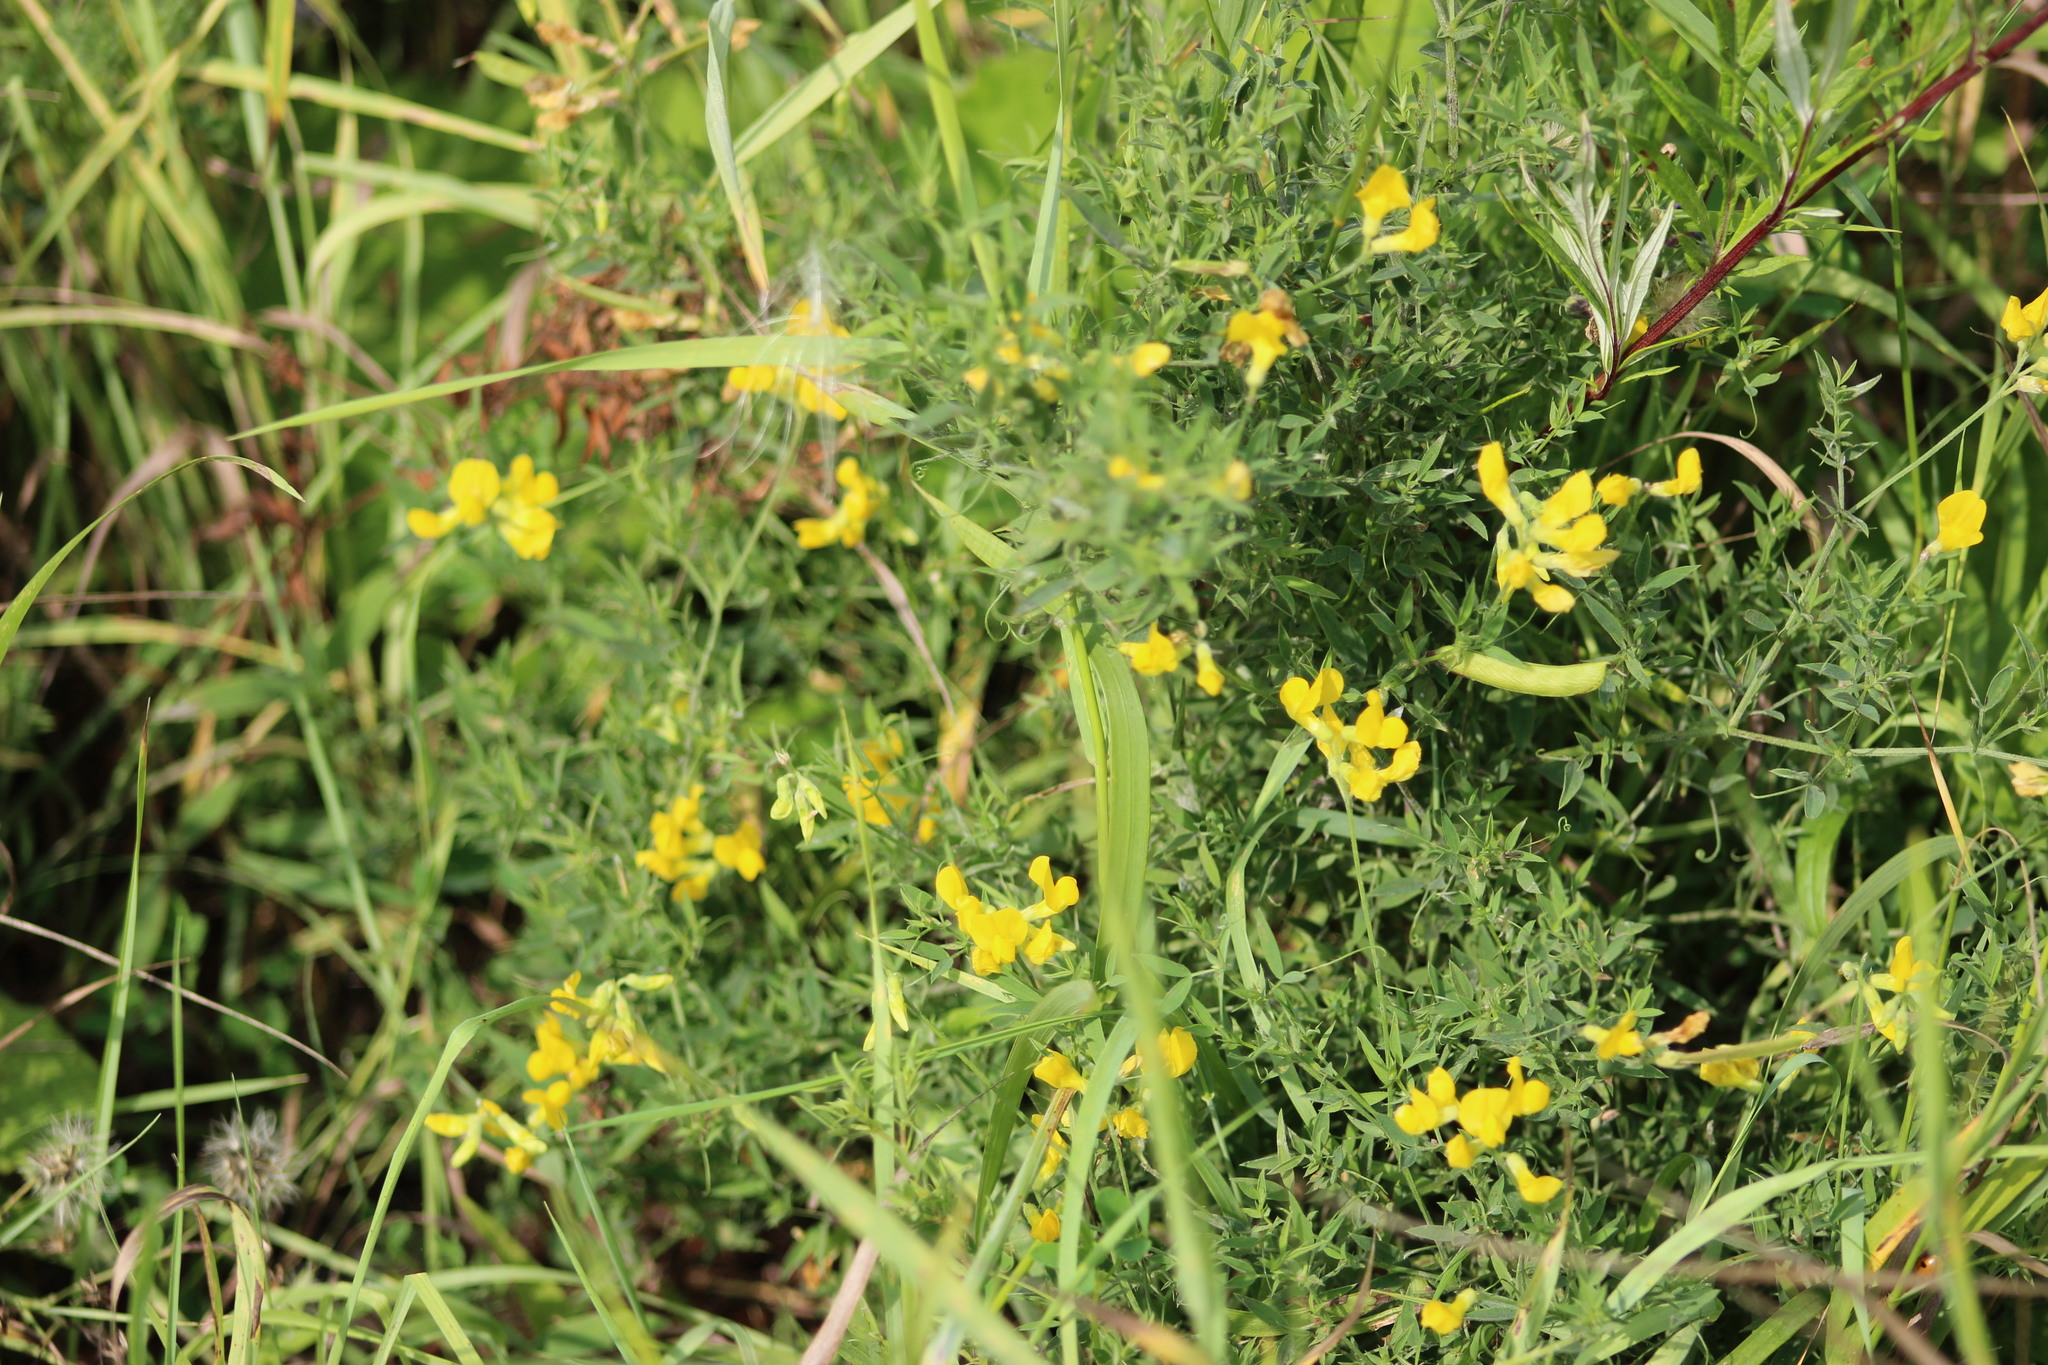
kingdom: Plantae
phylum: Tracheophyta
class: Magnoliopsida
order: Fabales
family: Fabaceae
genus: Lathyrus
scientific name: Lathyrus pratensis
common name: Meadow vetchling
